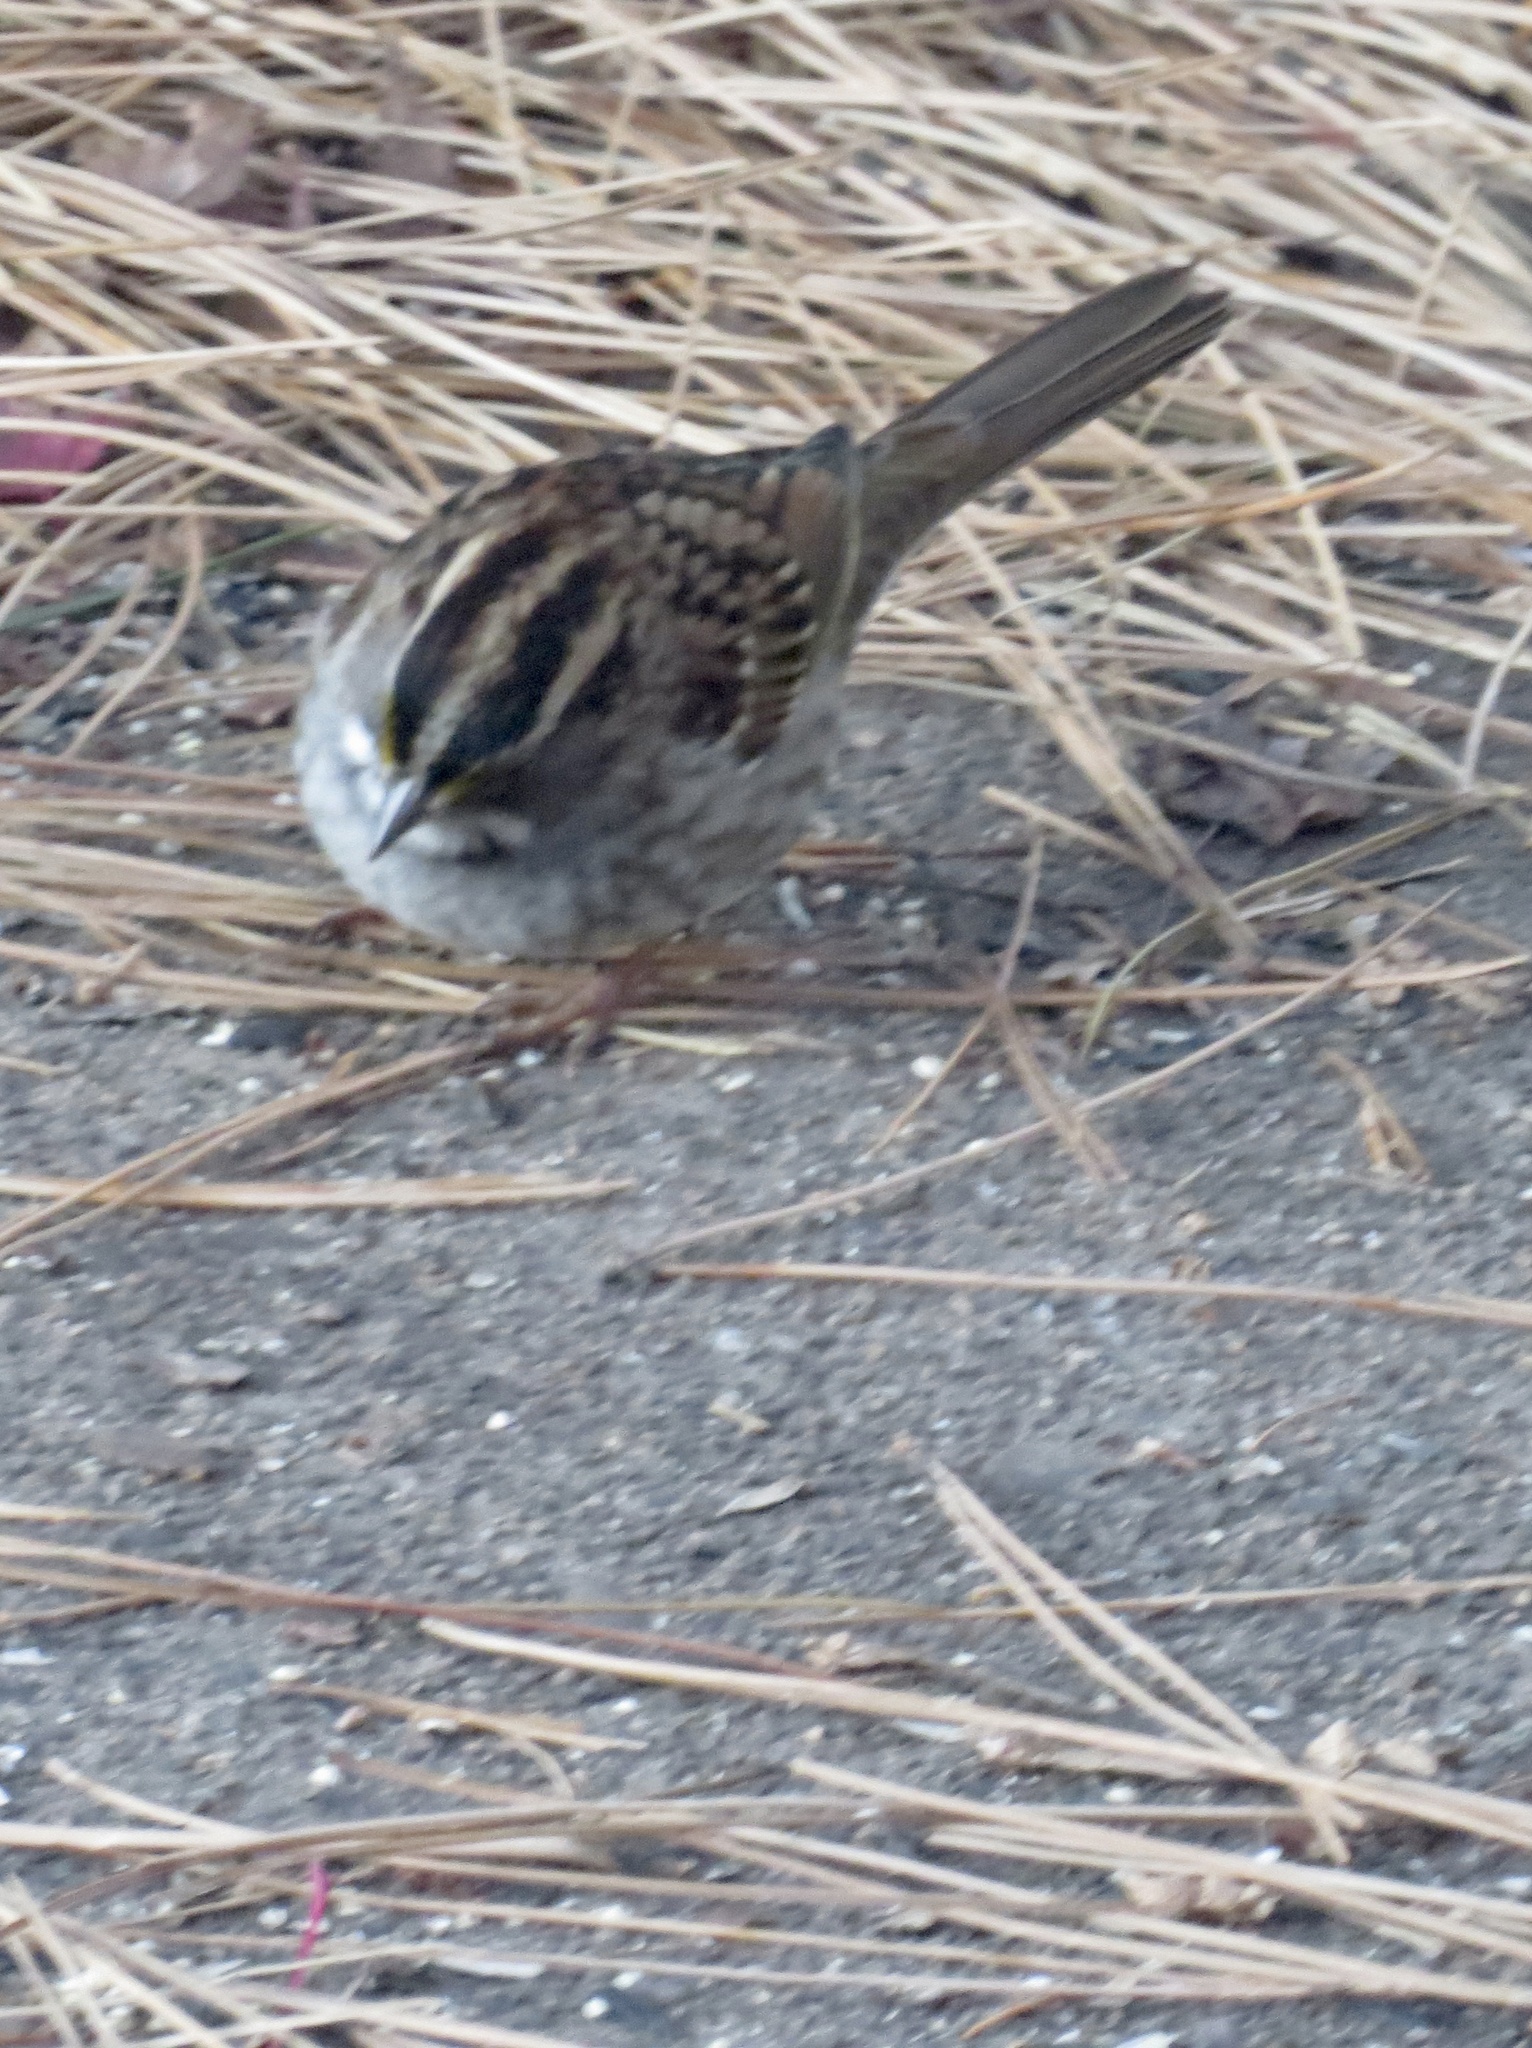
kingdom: Animalia
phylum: Chordata
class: Aves
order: Passeriformes
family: Passerellidae
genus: Zonotrichia
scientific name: Zonotrichia albicollis
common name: White-throated sparrow
